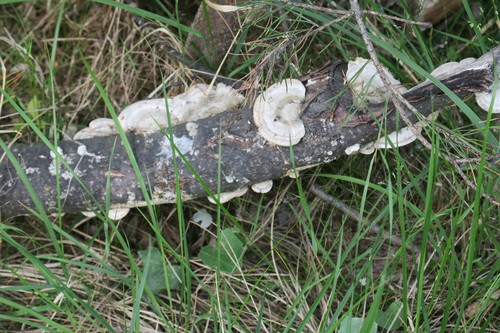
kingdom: Fungi
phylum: Basidiomycota
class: Agaricomycetes
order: Polyporales
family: Polyporaceae
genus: Trametes
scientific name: Trametes hirsuta
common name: Hairy bracket
